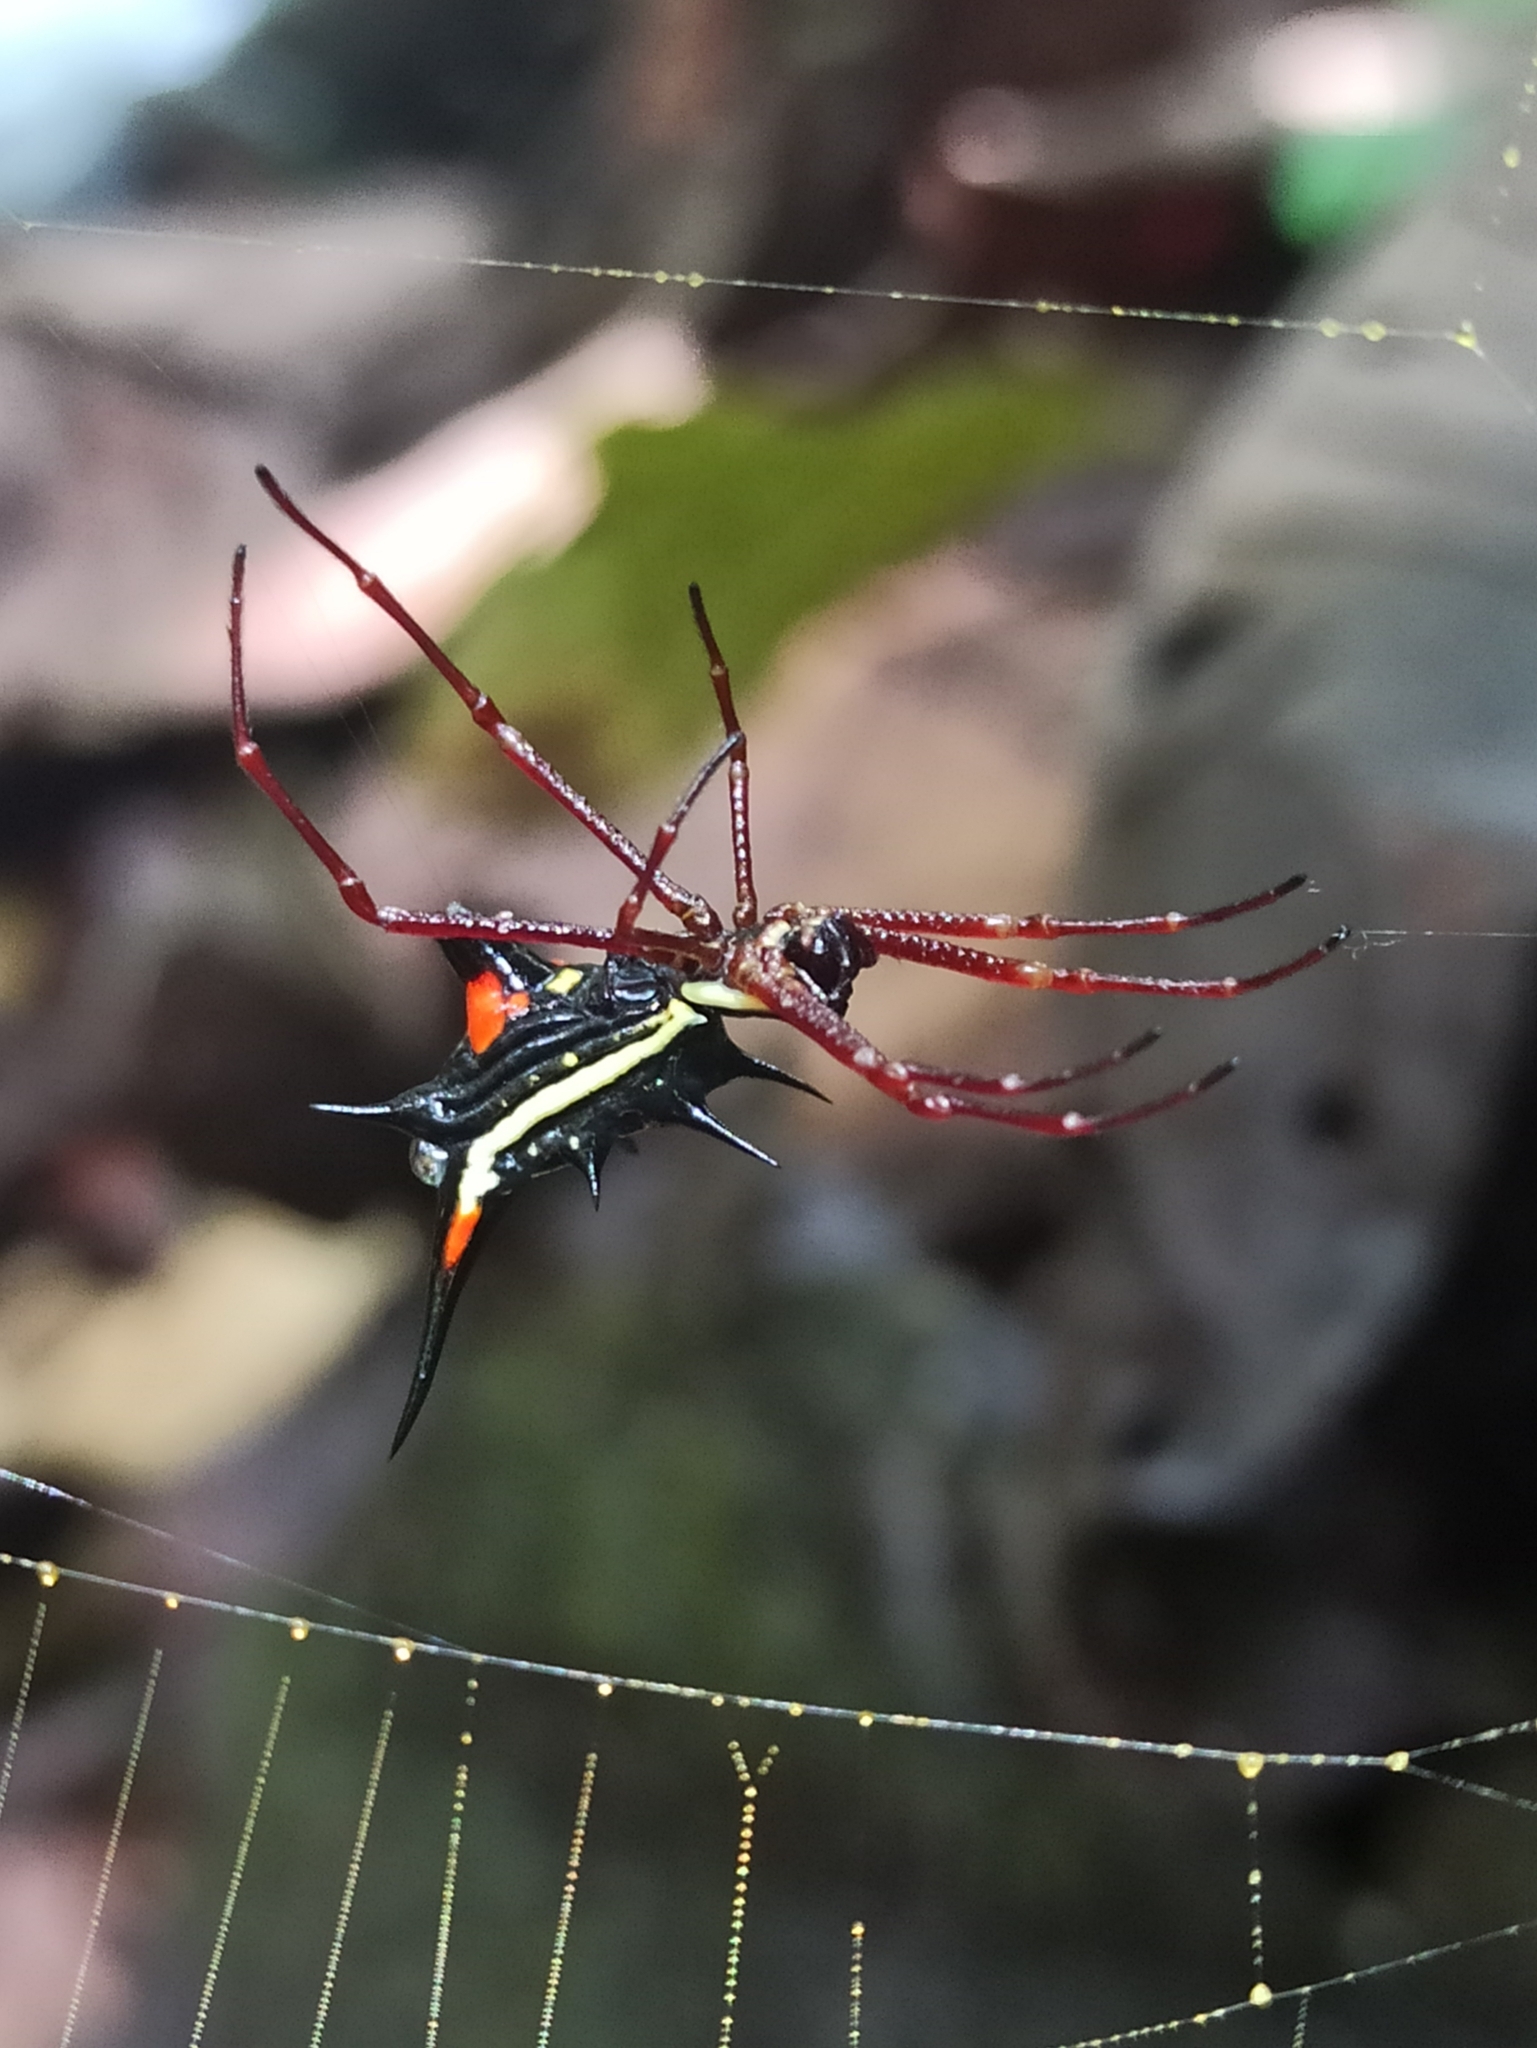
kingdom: Animalia
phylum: Arthropoda
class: Arachnida
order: Araneae
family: Araneidae
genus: Micrathena
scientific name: Micrathena schreibersi
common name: Orb weavers
